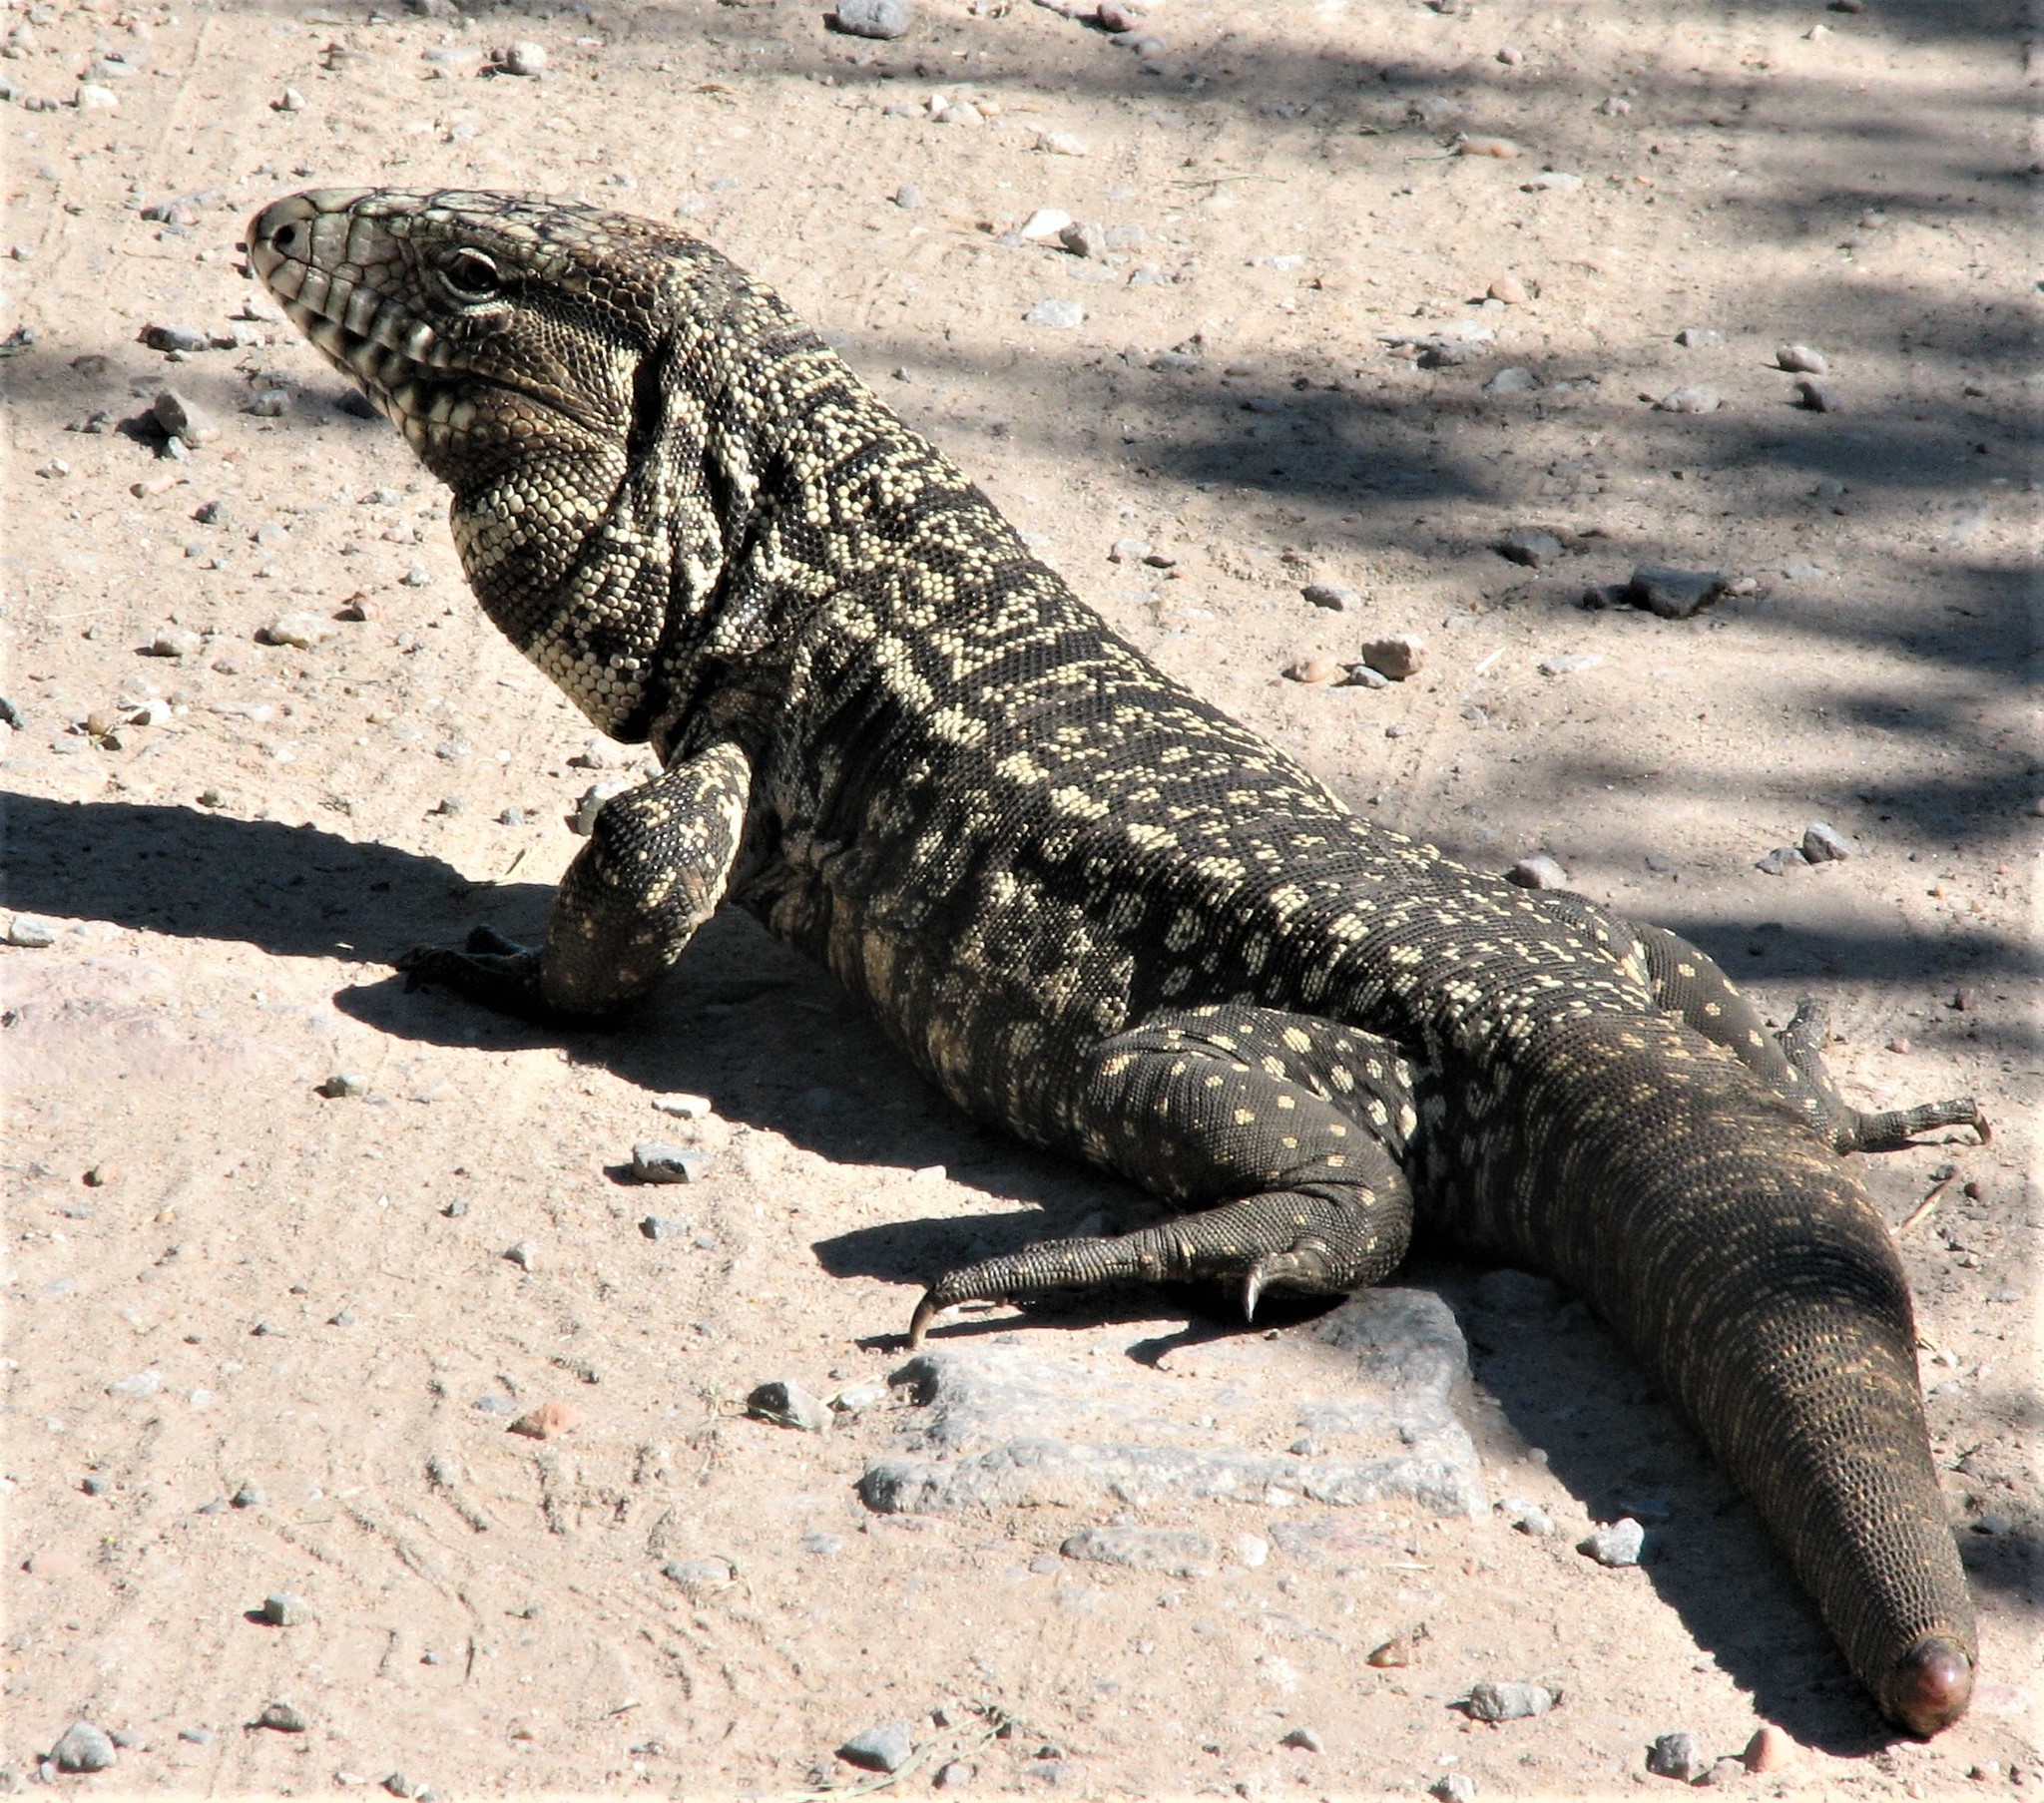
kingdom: Animalia
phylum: Chordata
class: Squamata
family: Teiidae
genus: Salvator
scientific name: Salvator merianae
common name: Argentine black and white tegu
